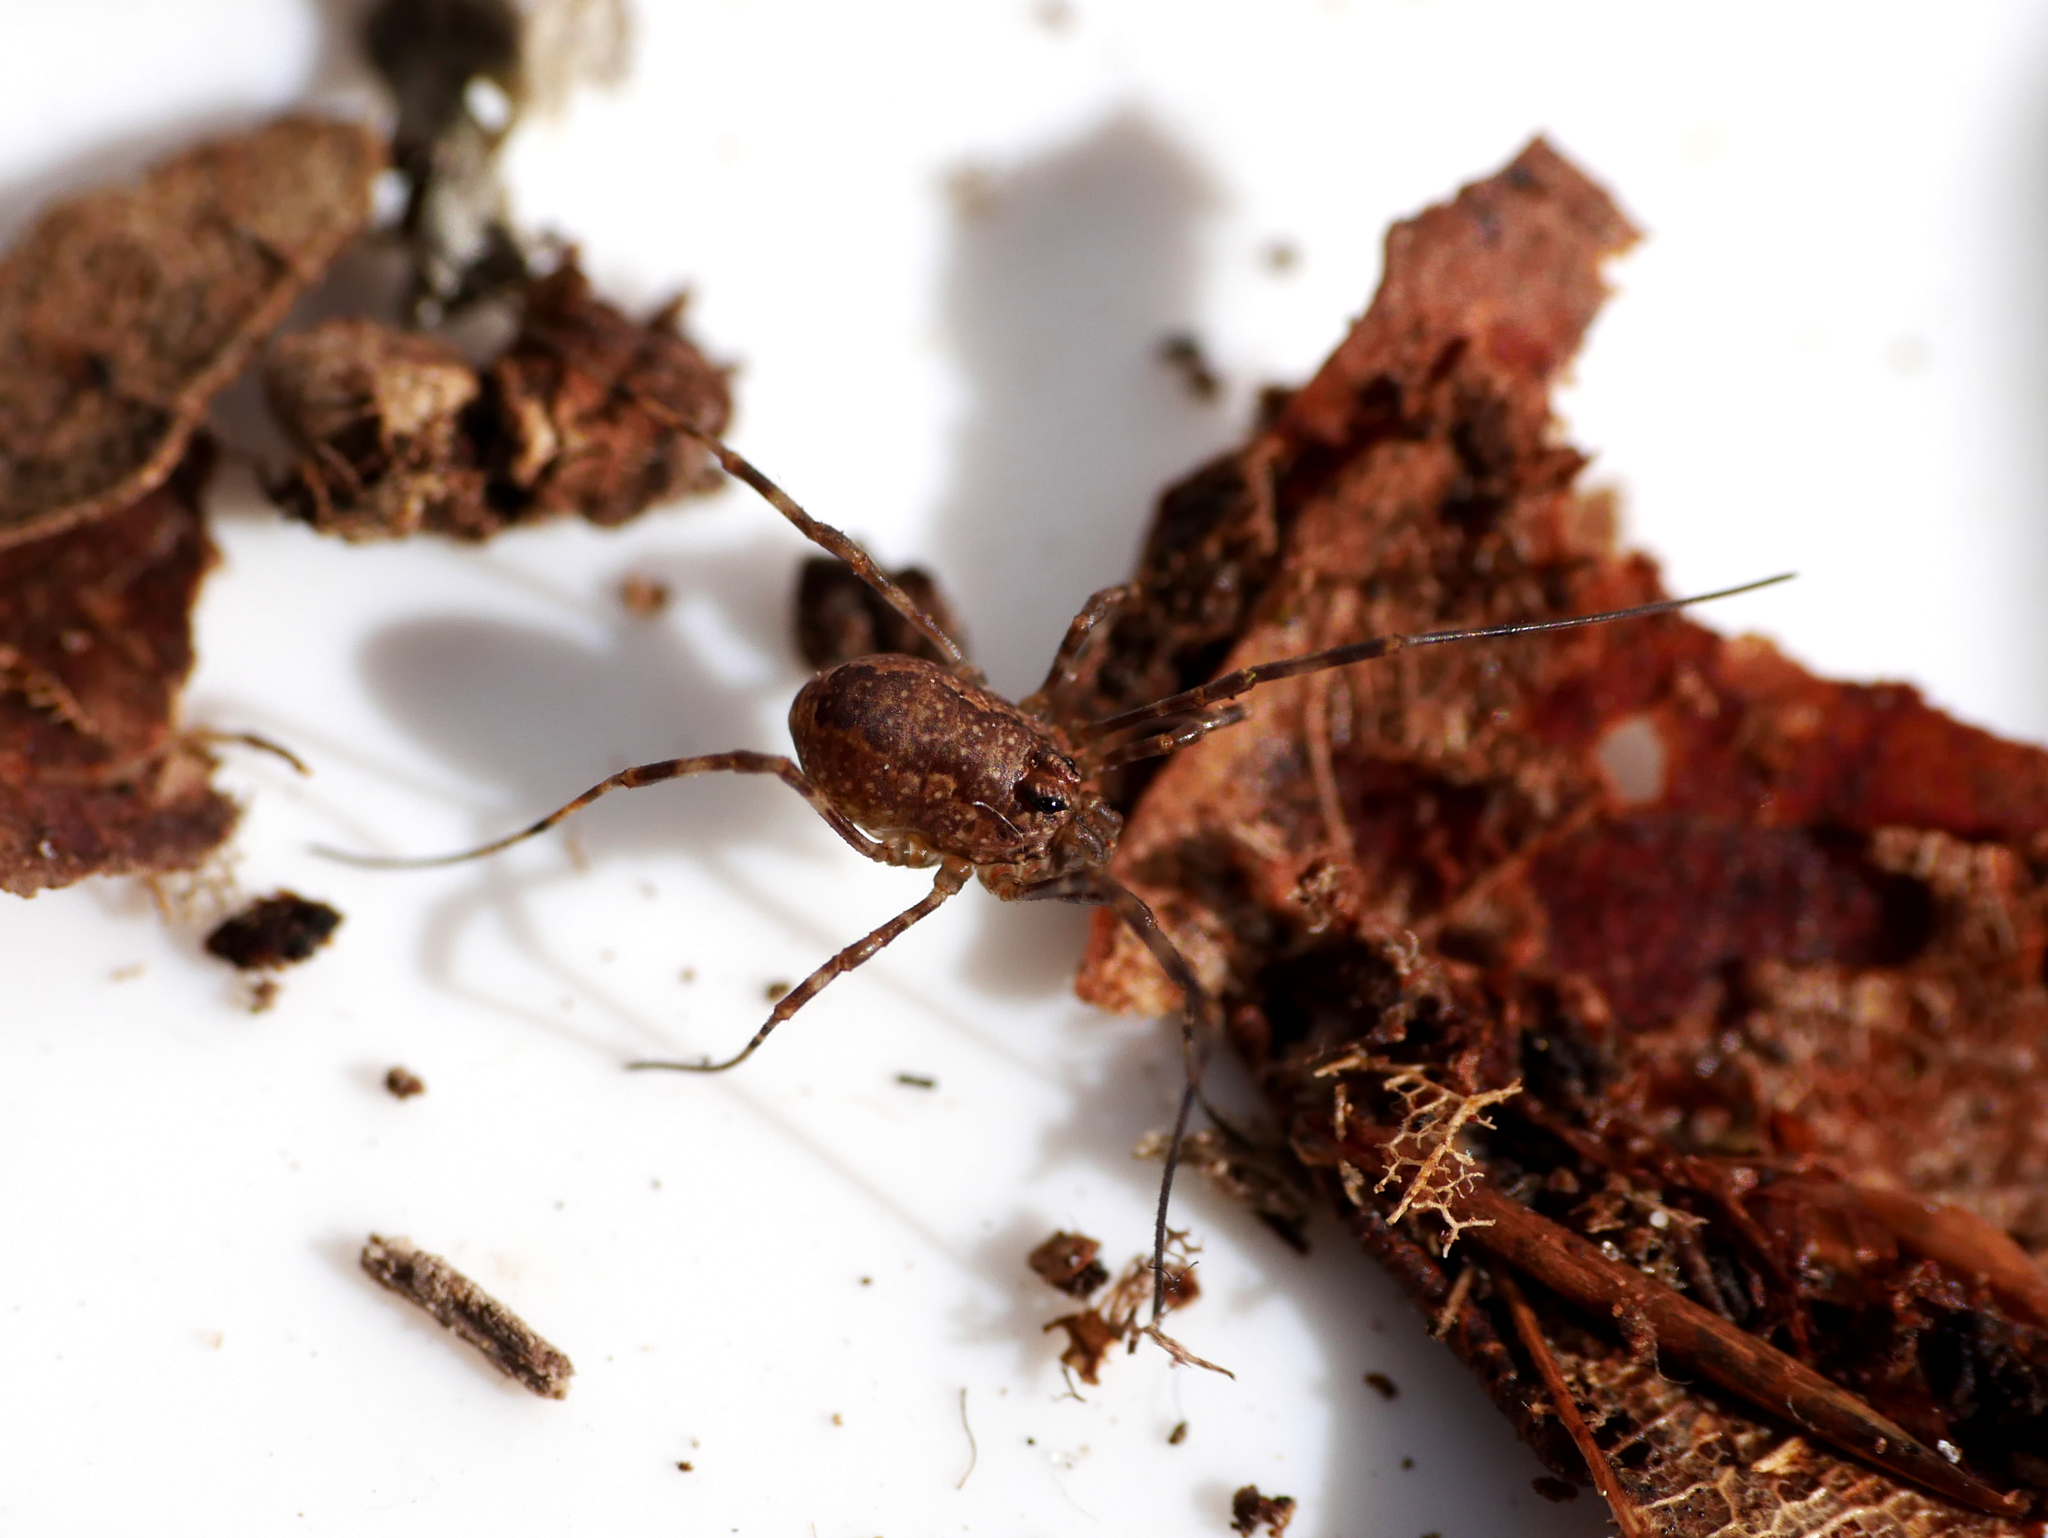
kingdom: Animalia
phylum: Arthropoda
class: Arachnida
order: Opiliones
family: Phalangiidae
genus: Rilaena
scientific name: Rilaena triangularis
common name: Spring harvestman
